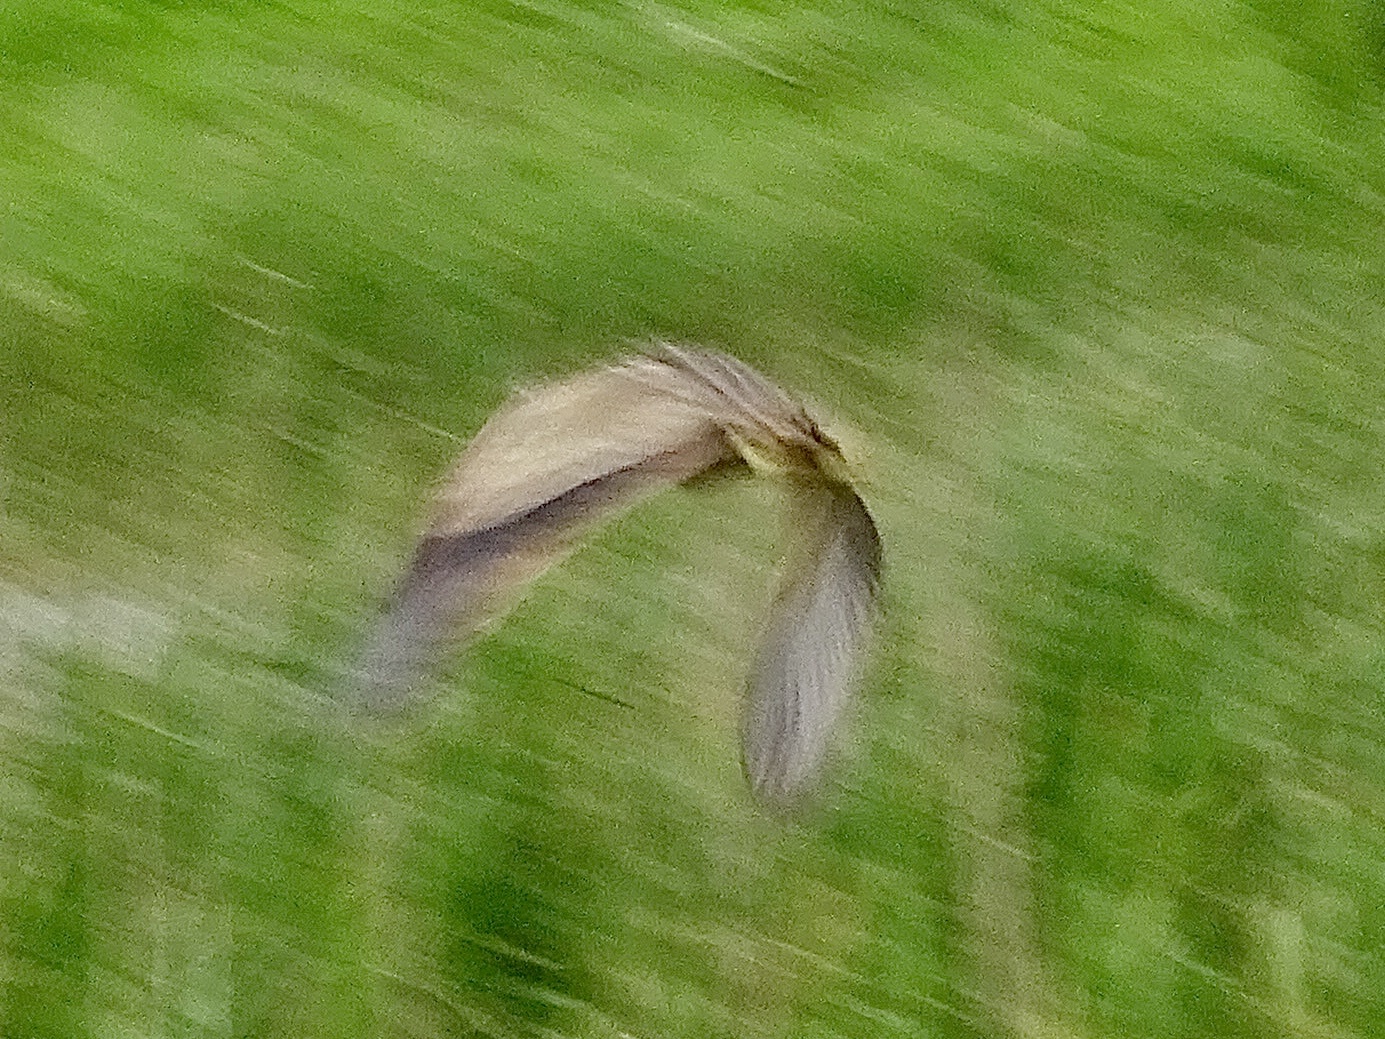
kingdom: Animalia
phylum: Chordata
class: Aves
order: Pelecaniformes
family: Ardeidae
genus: Botaurus
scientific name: Botaurus lentiginosus
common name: American bittern
